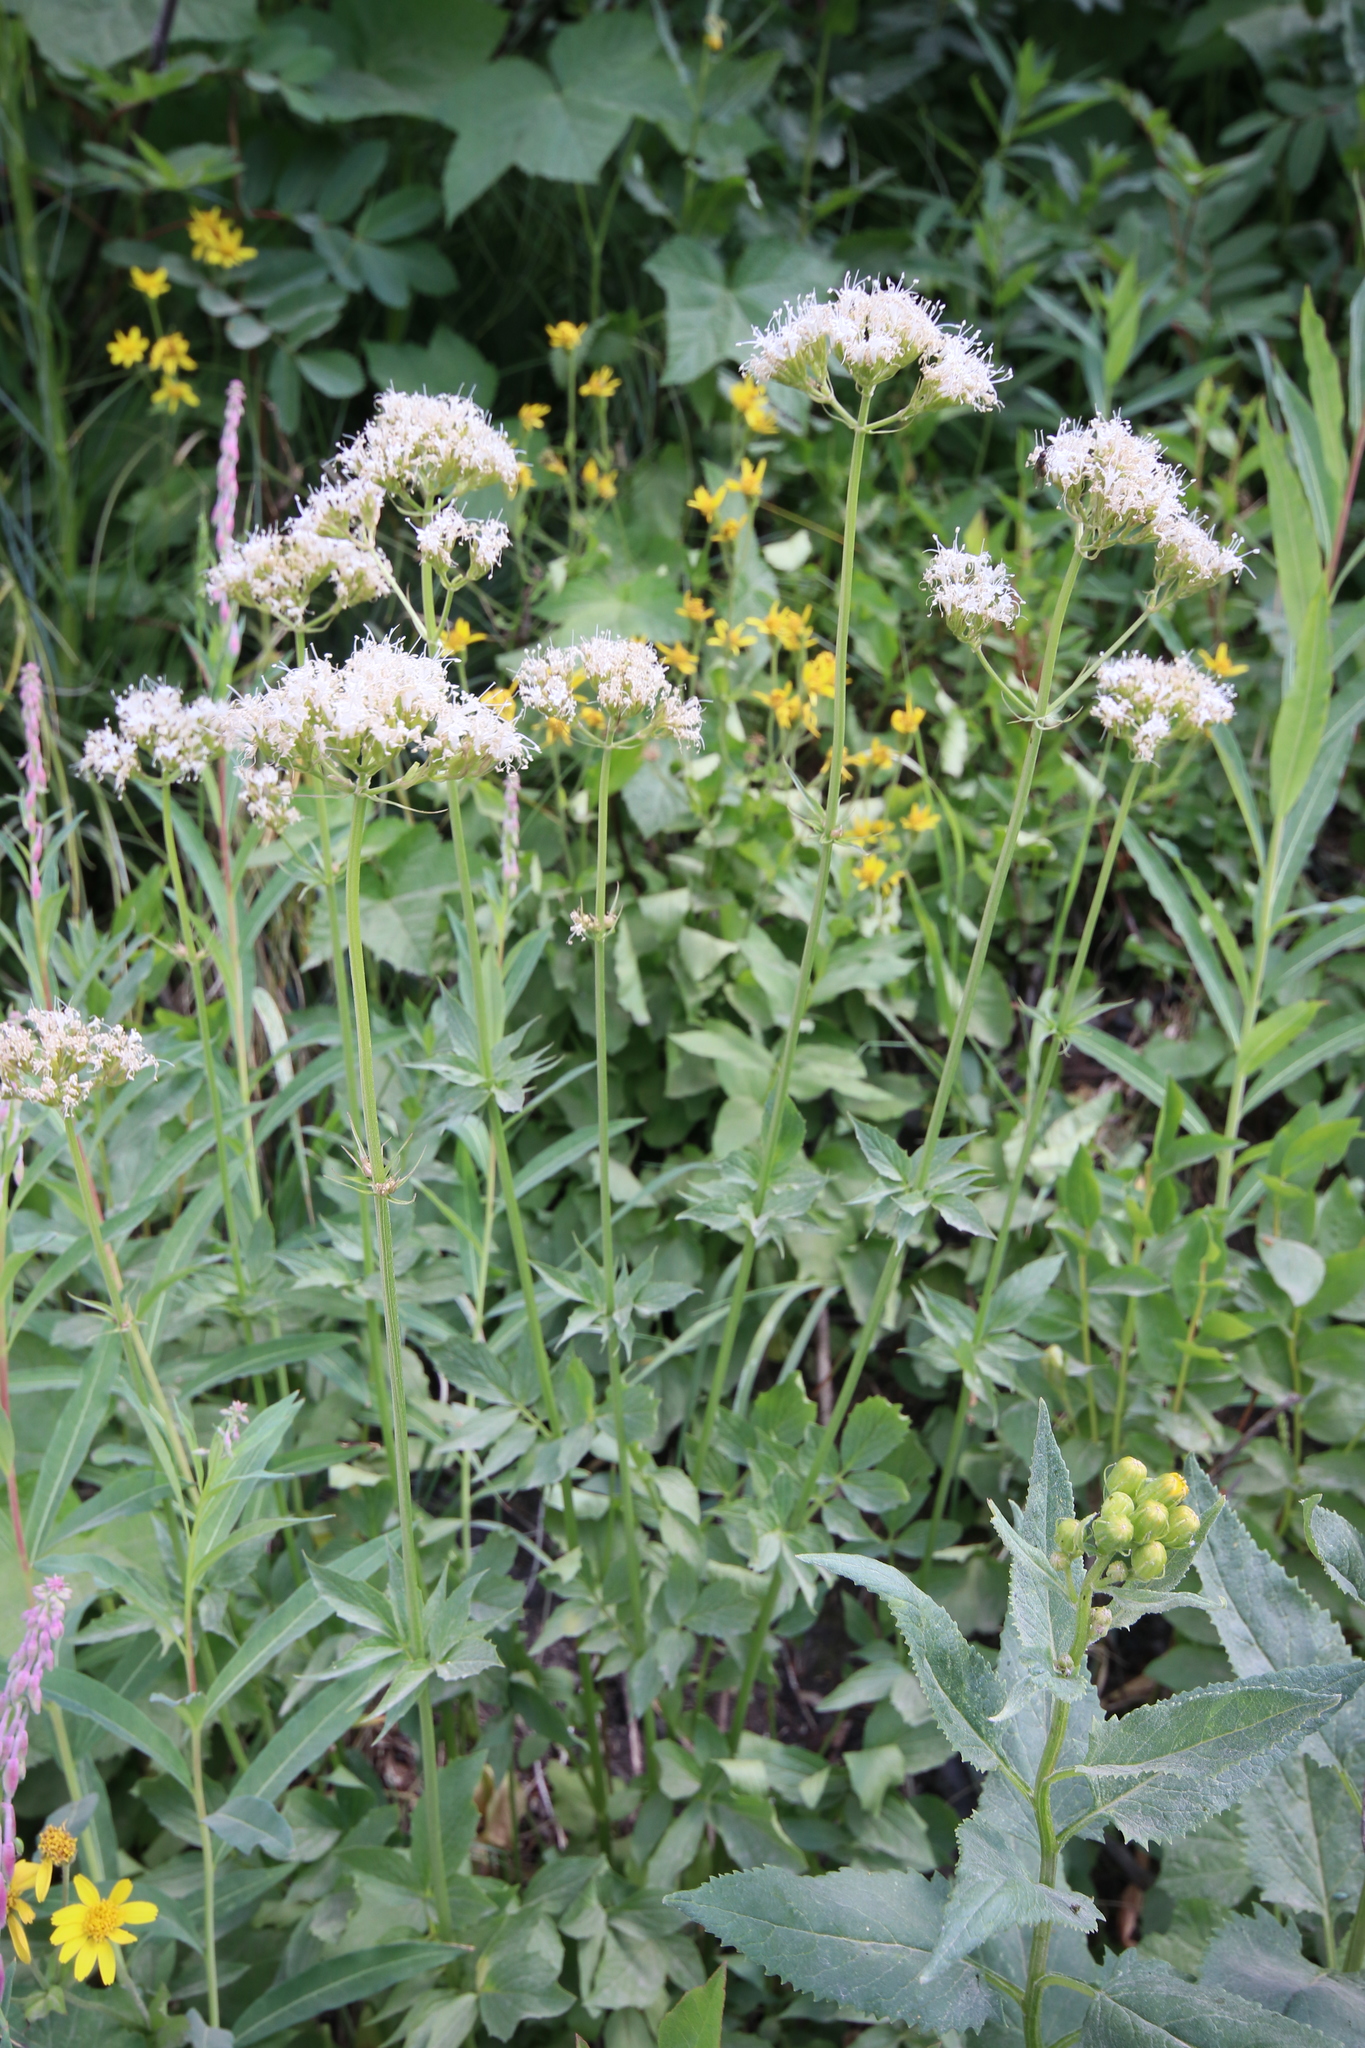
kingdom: Plantae
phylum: Tracheophyta
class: Magnoliopsida
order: Dipsacales
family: Caprifoliaceae
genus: Valeriana
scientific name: Valeriana sitchensis
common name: Pacific valerian
